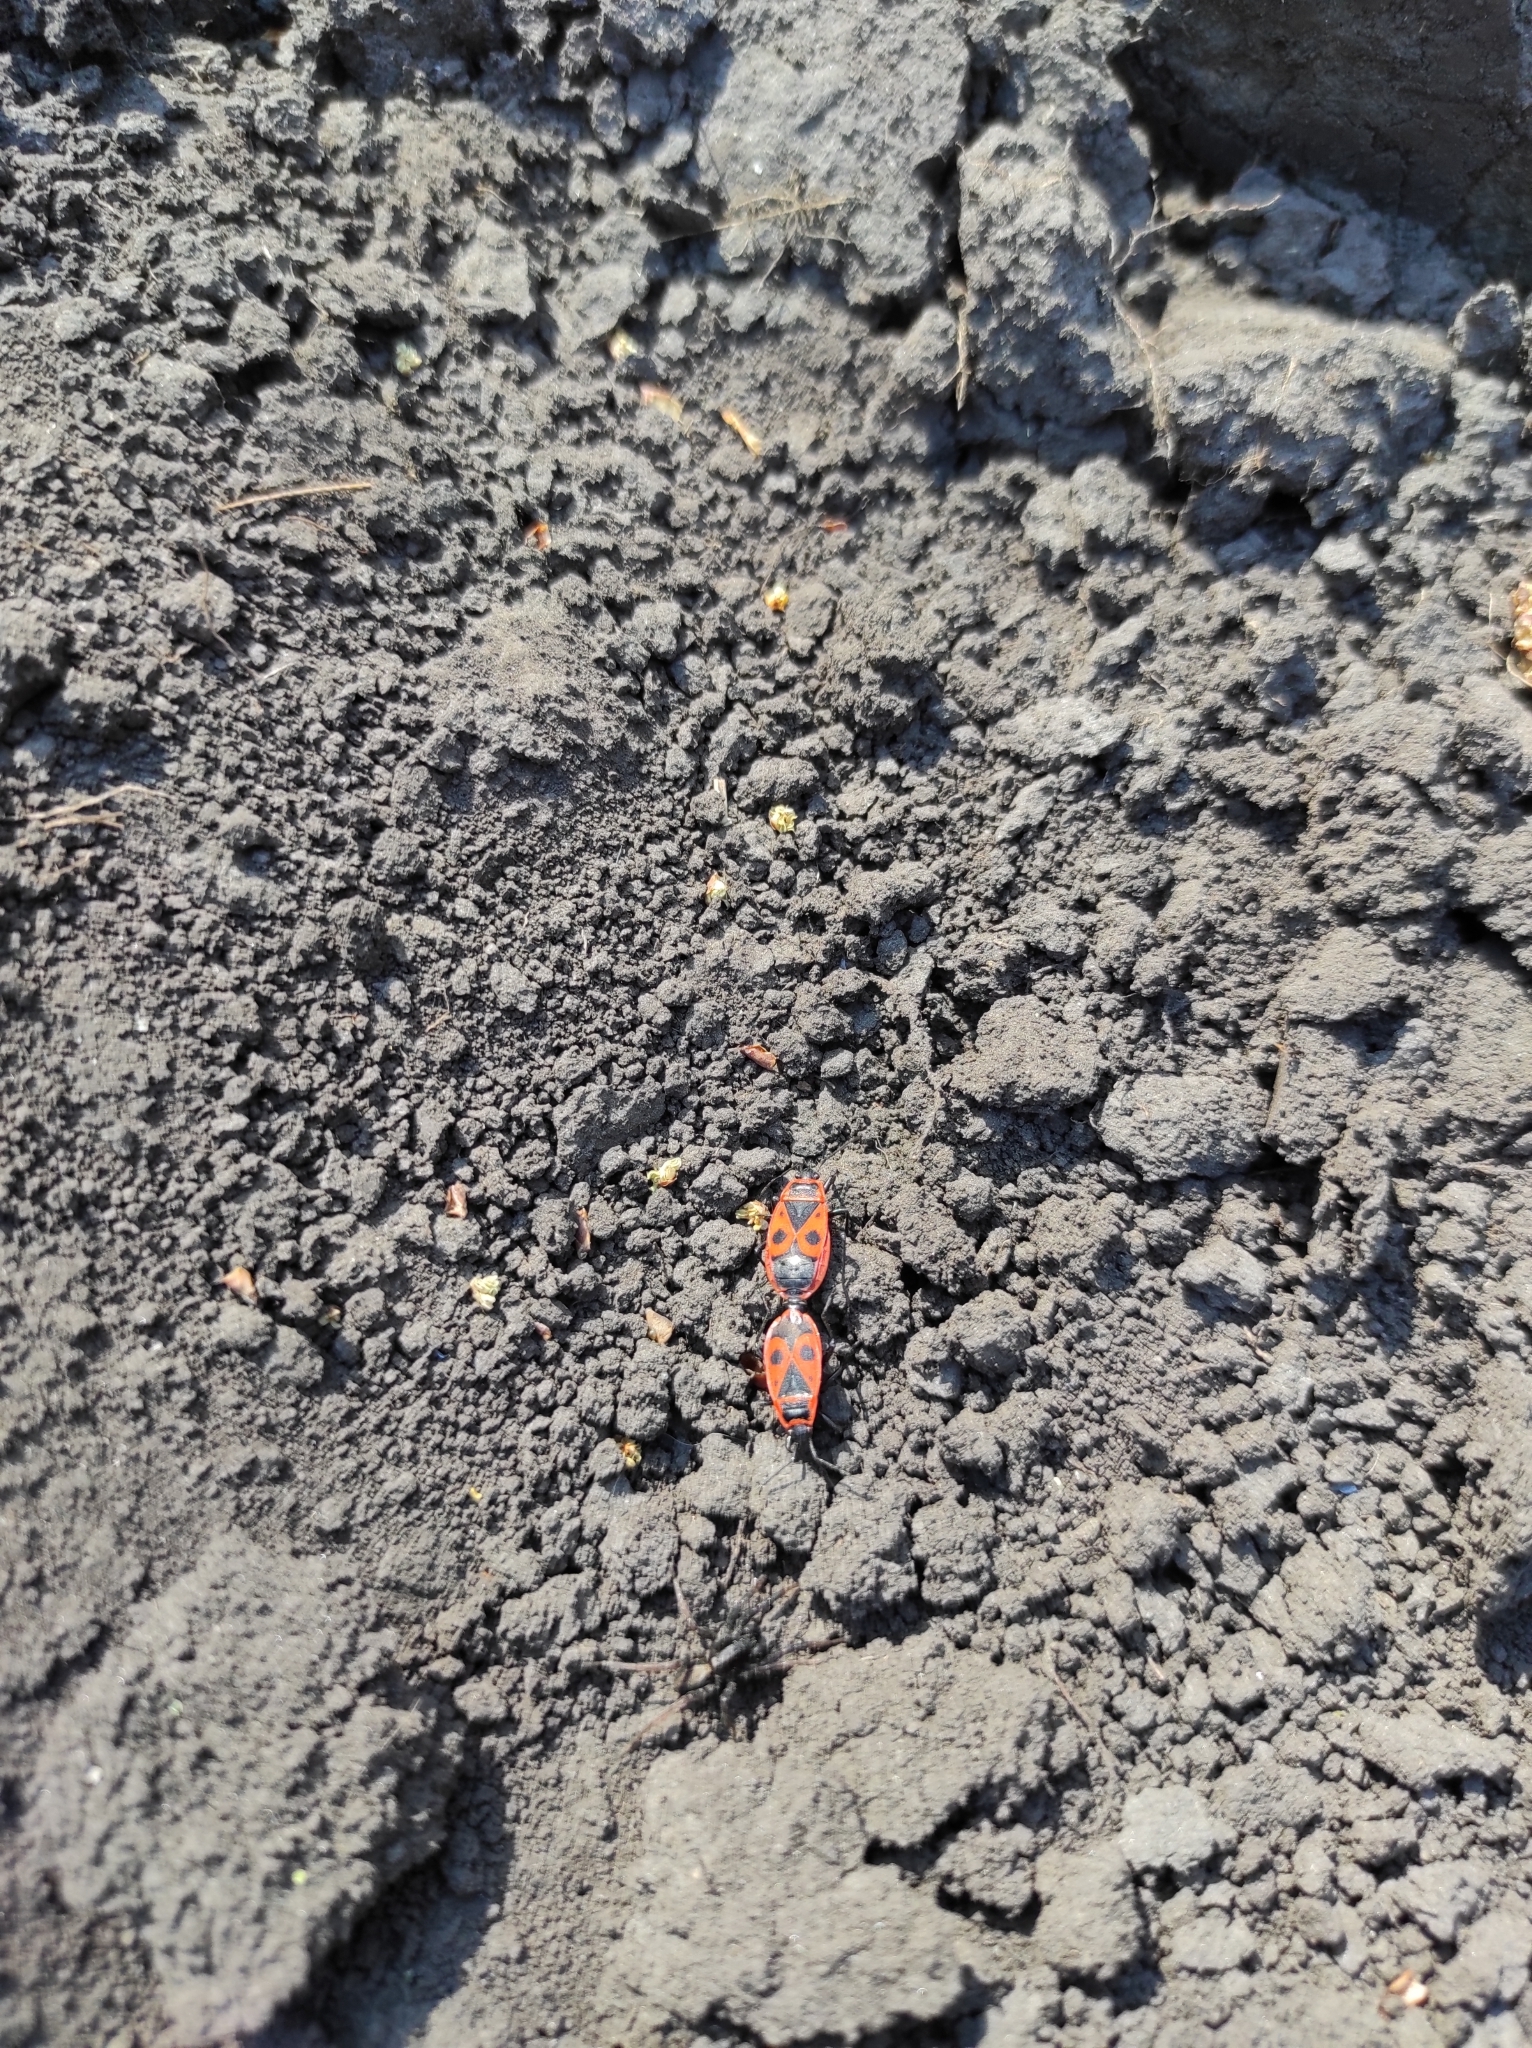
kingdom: Animalia
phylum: Arthropoda
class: Insecta
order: Hemiptera
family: Pyrrhocoridae
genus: Pyrrhocoris
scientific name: Pyrrhocoris apterus
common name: Firebug
